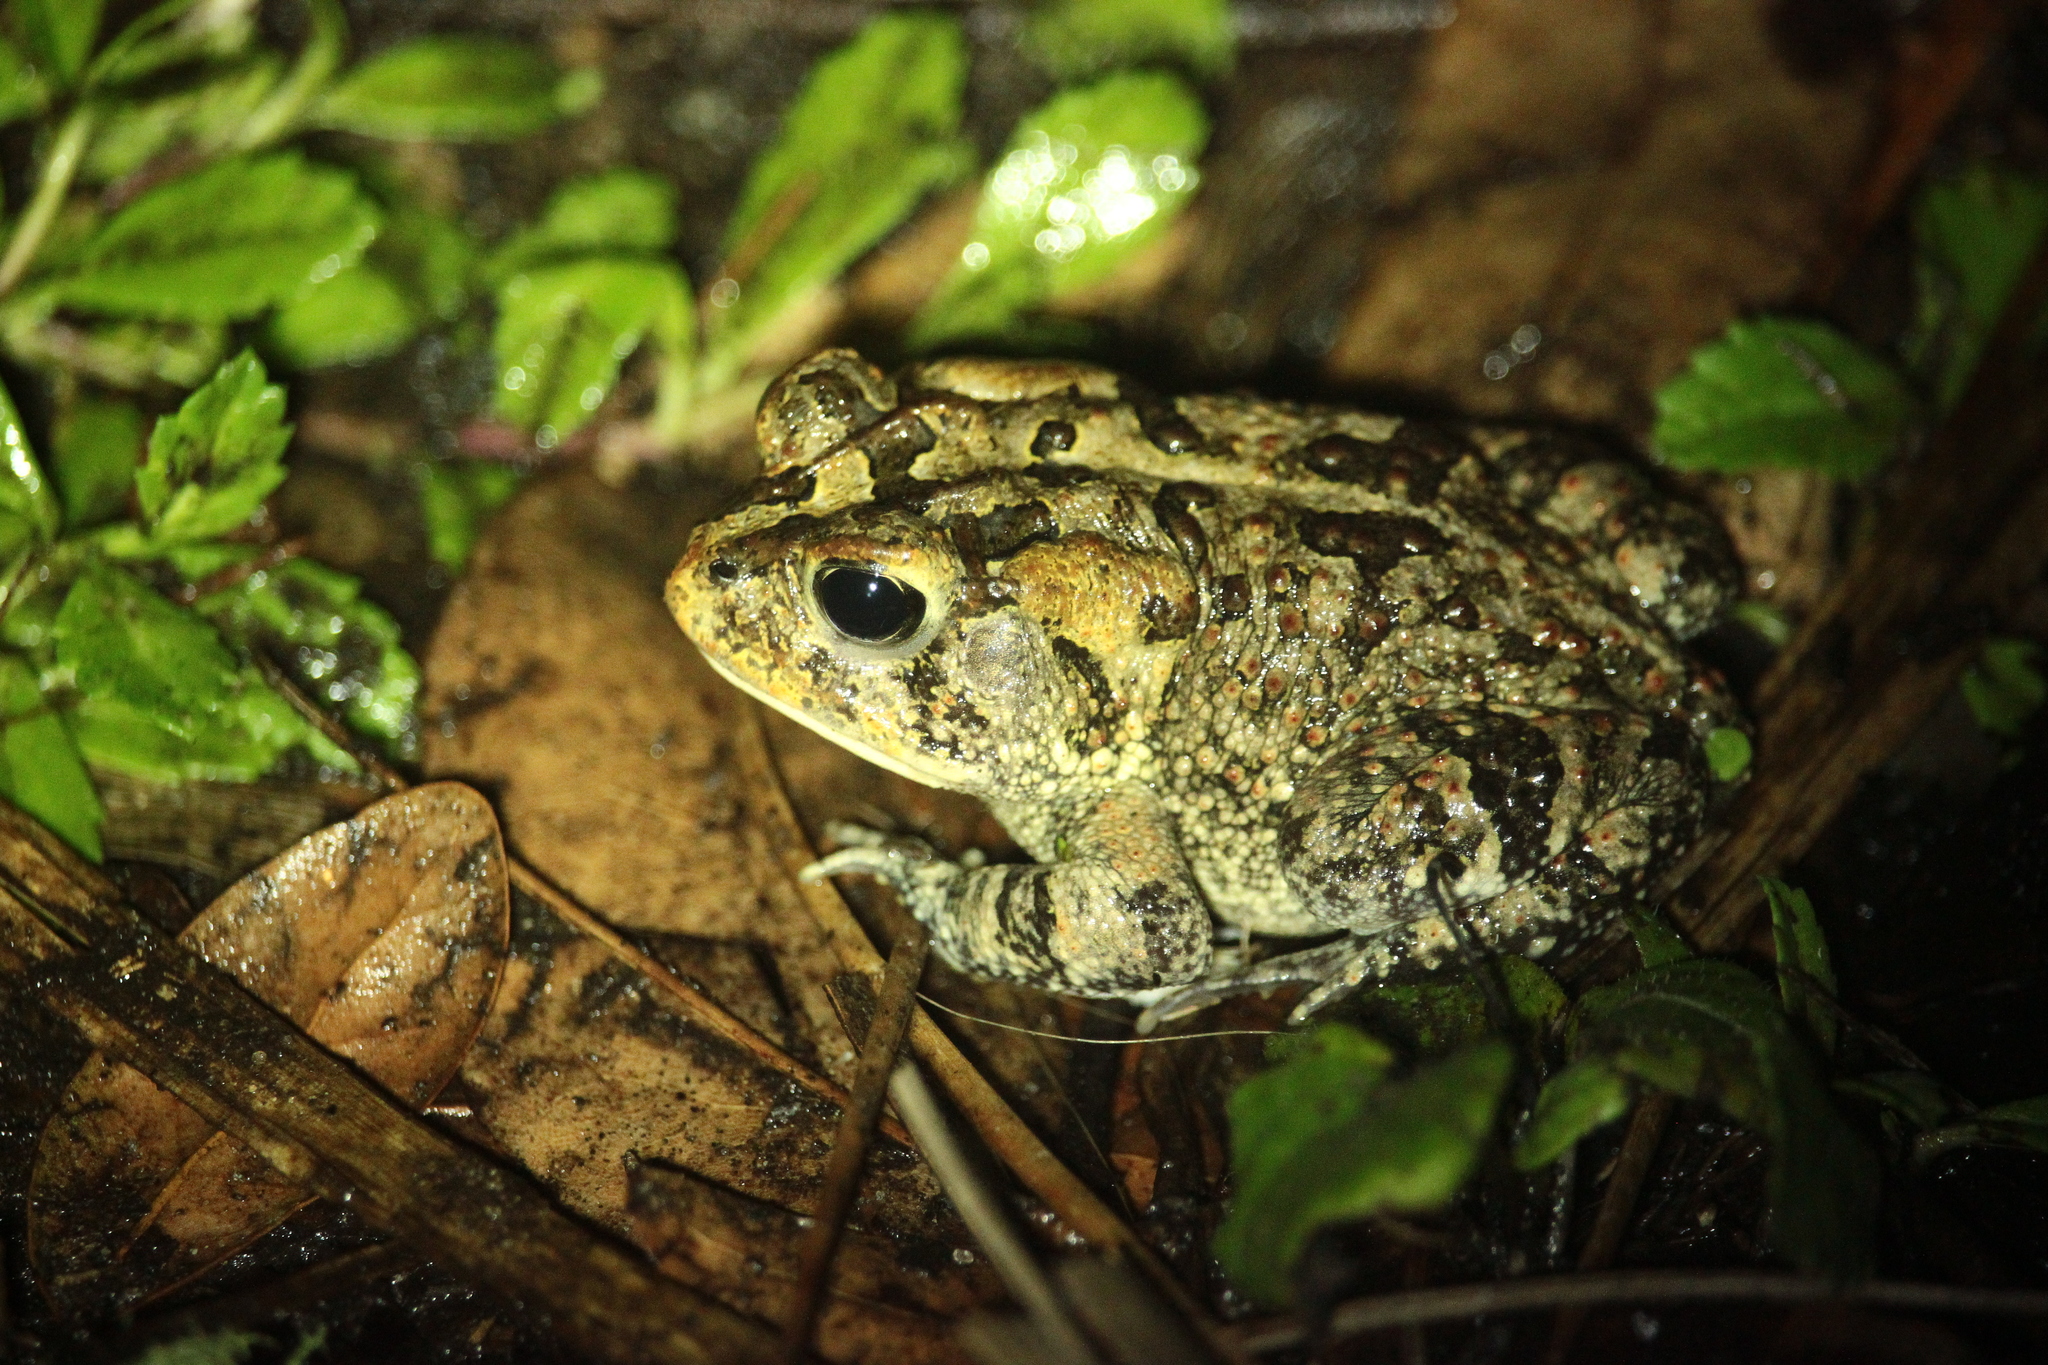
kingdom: Animalia
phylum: Chordata
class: Amphibia
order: Anura
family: Bufonidae
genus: Anaxyrus
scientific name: Anaxyrus terrestris
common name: Southern toad
